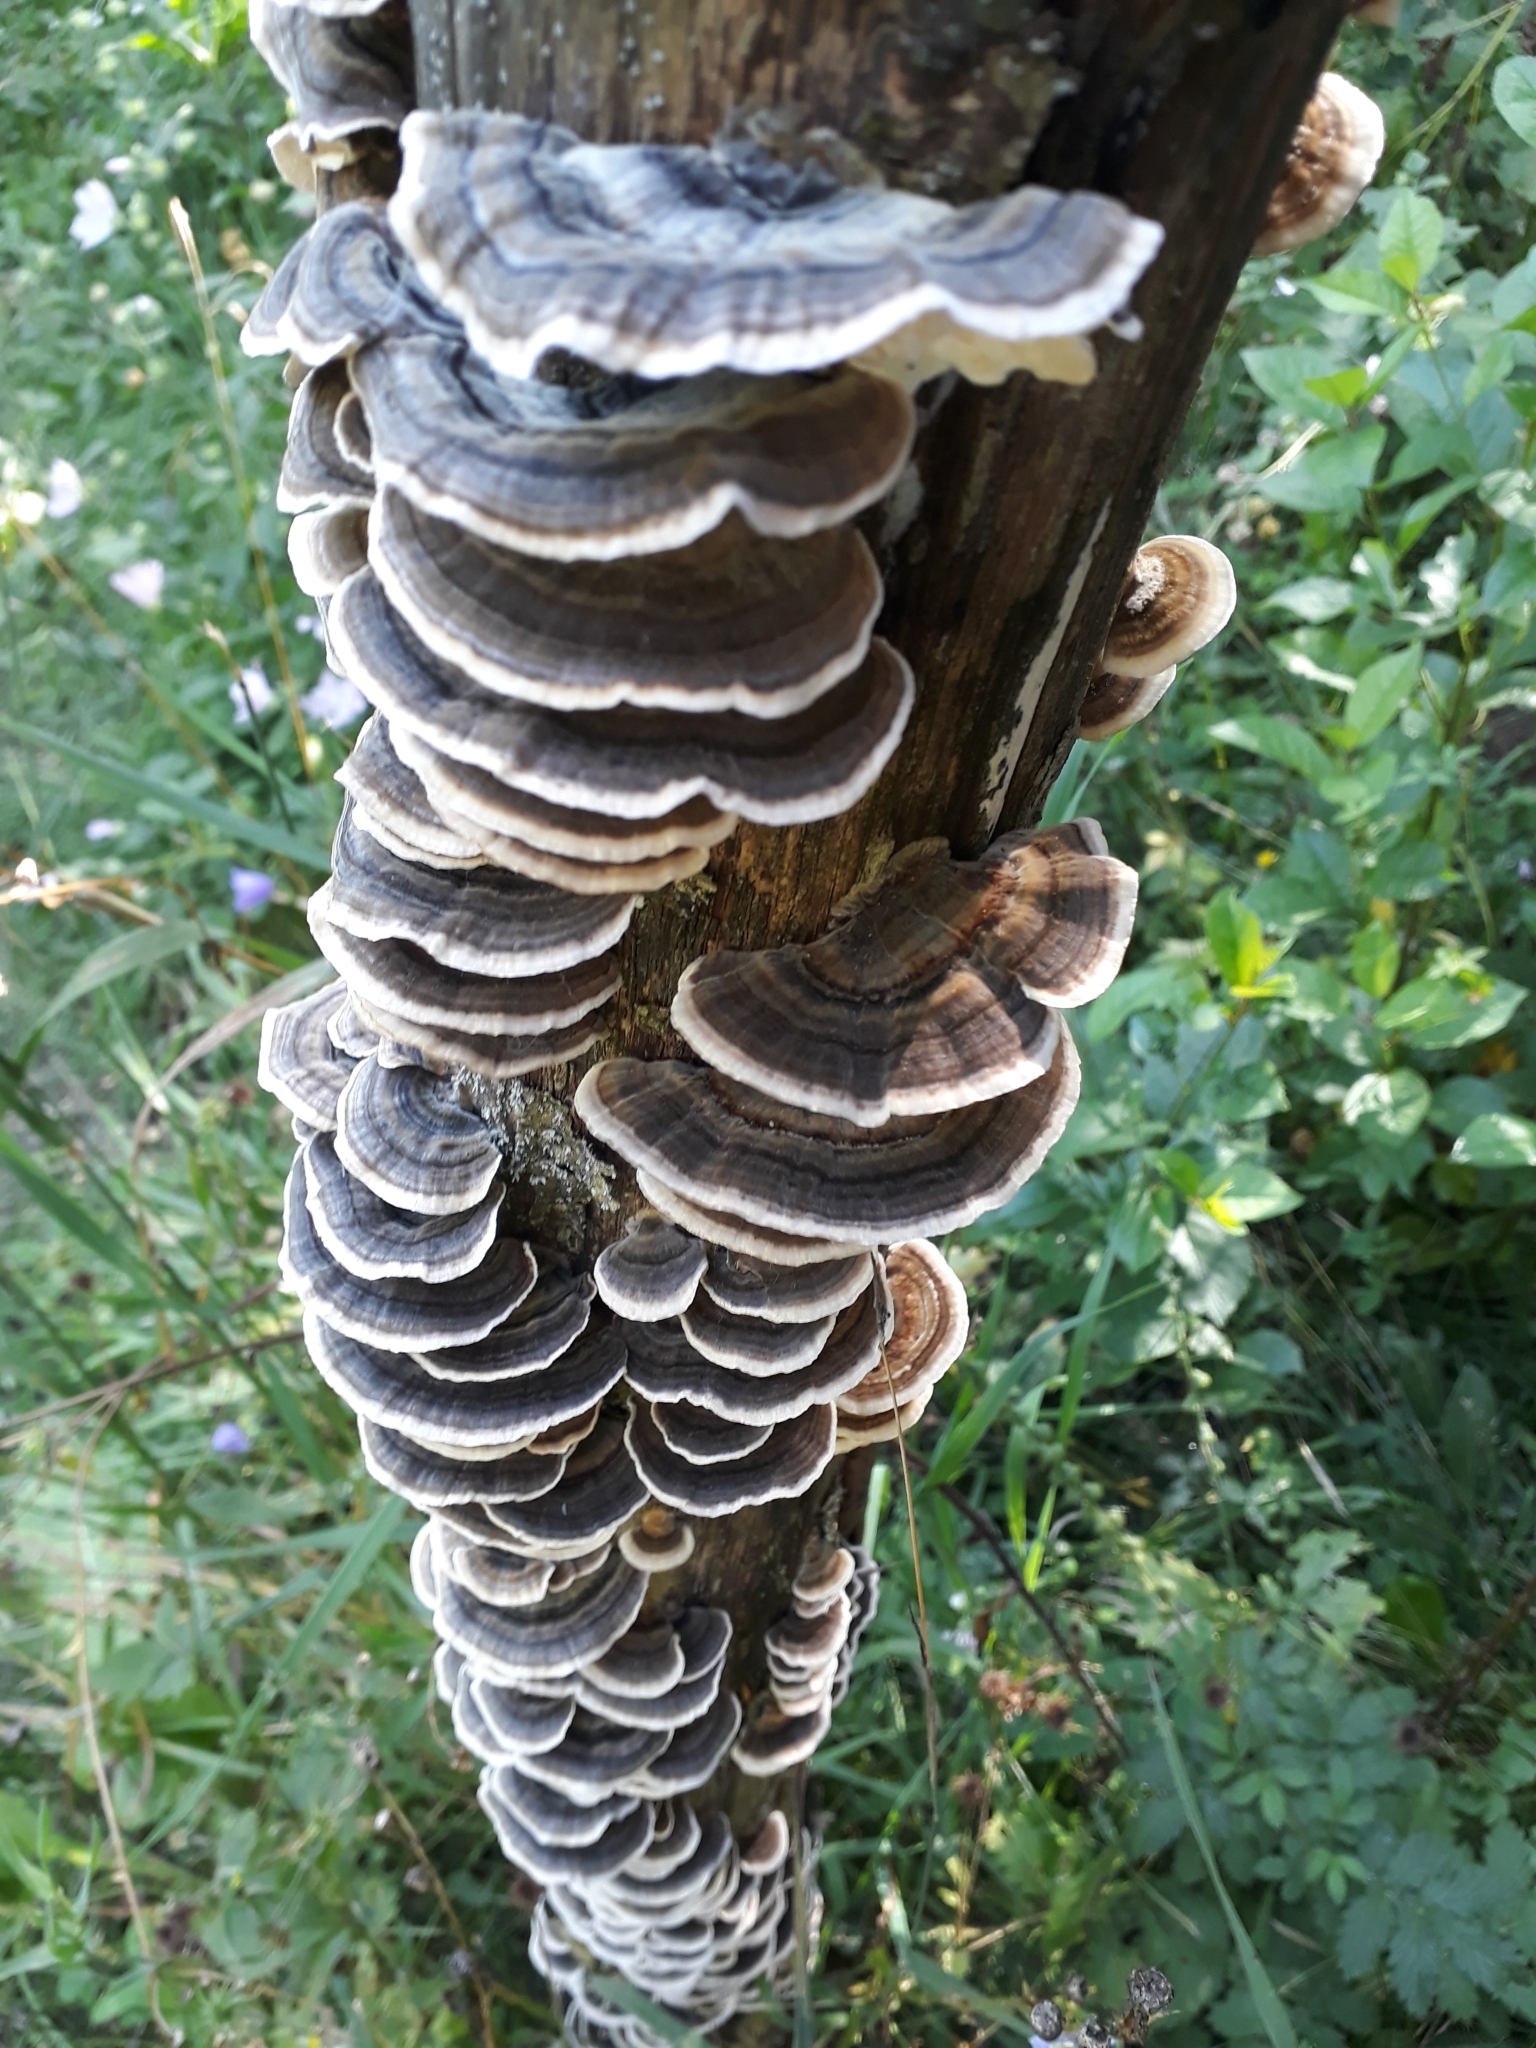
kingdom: Fungi
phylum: Basidiomycota
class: Agaricomycetes
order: Polyporales
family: Polyporaceae
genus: Trametes
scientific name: Trametes versicolor
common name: Turkeytail
